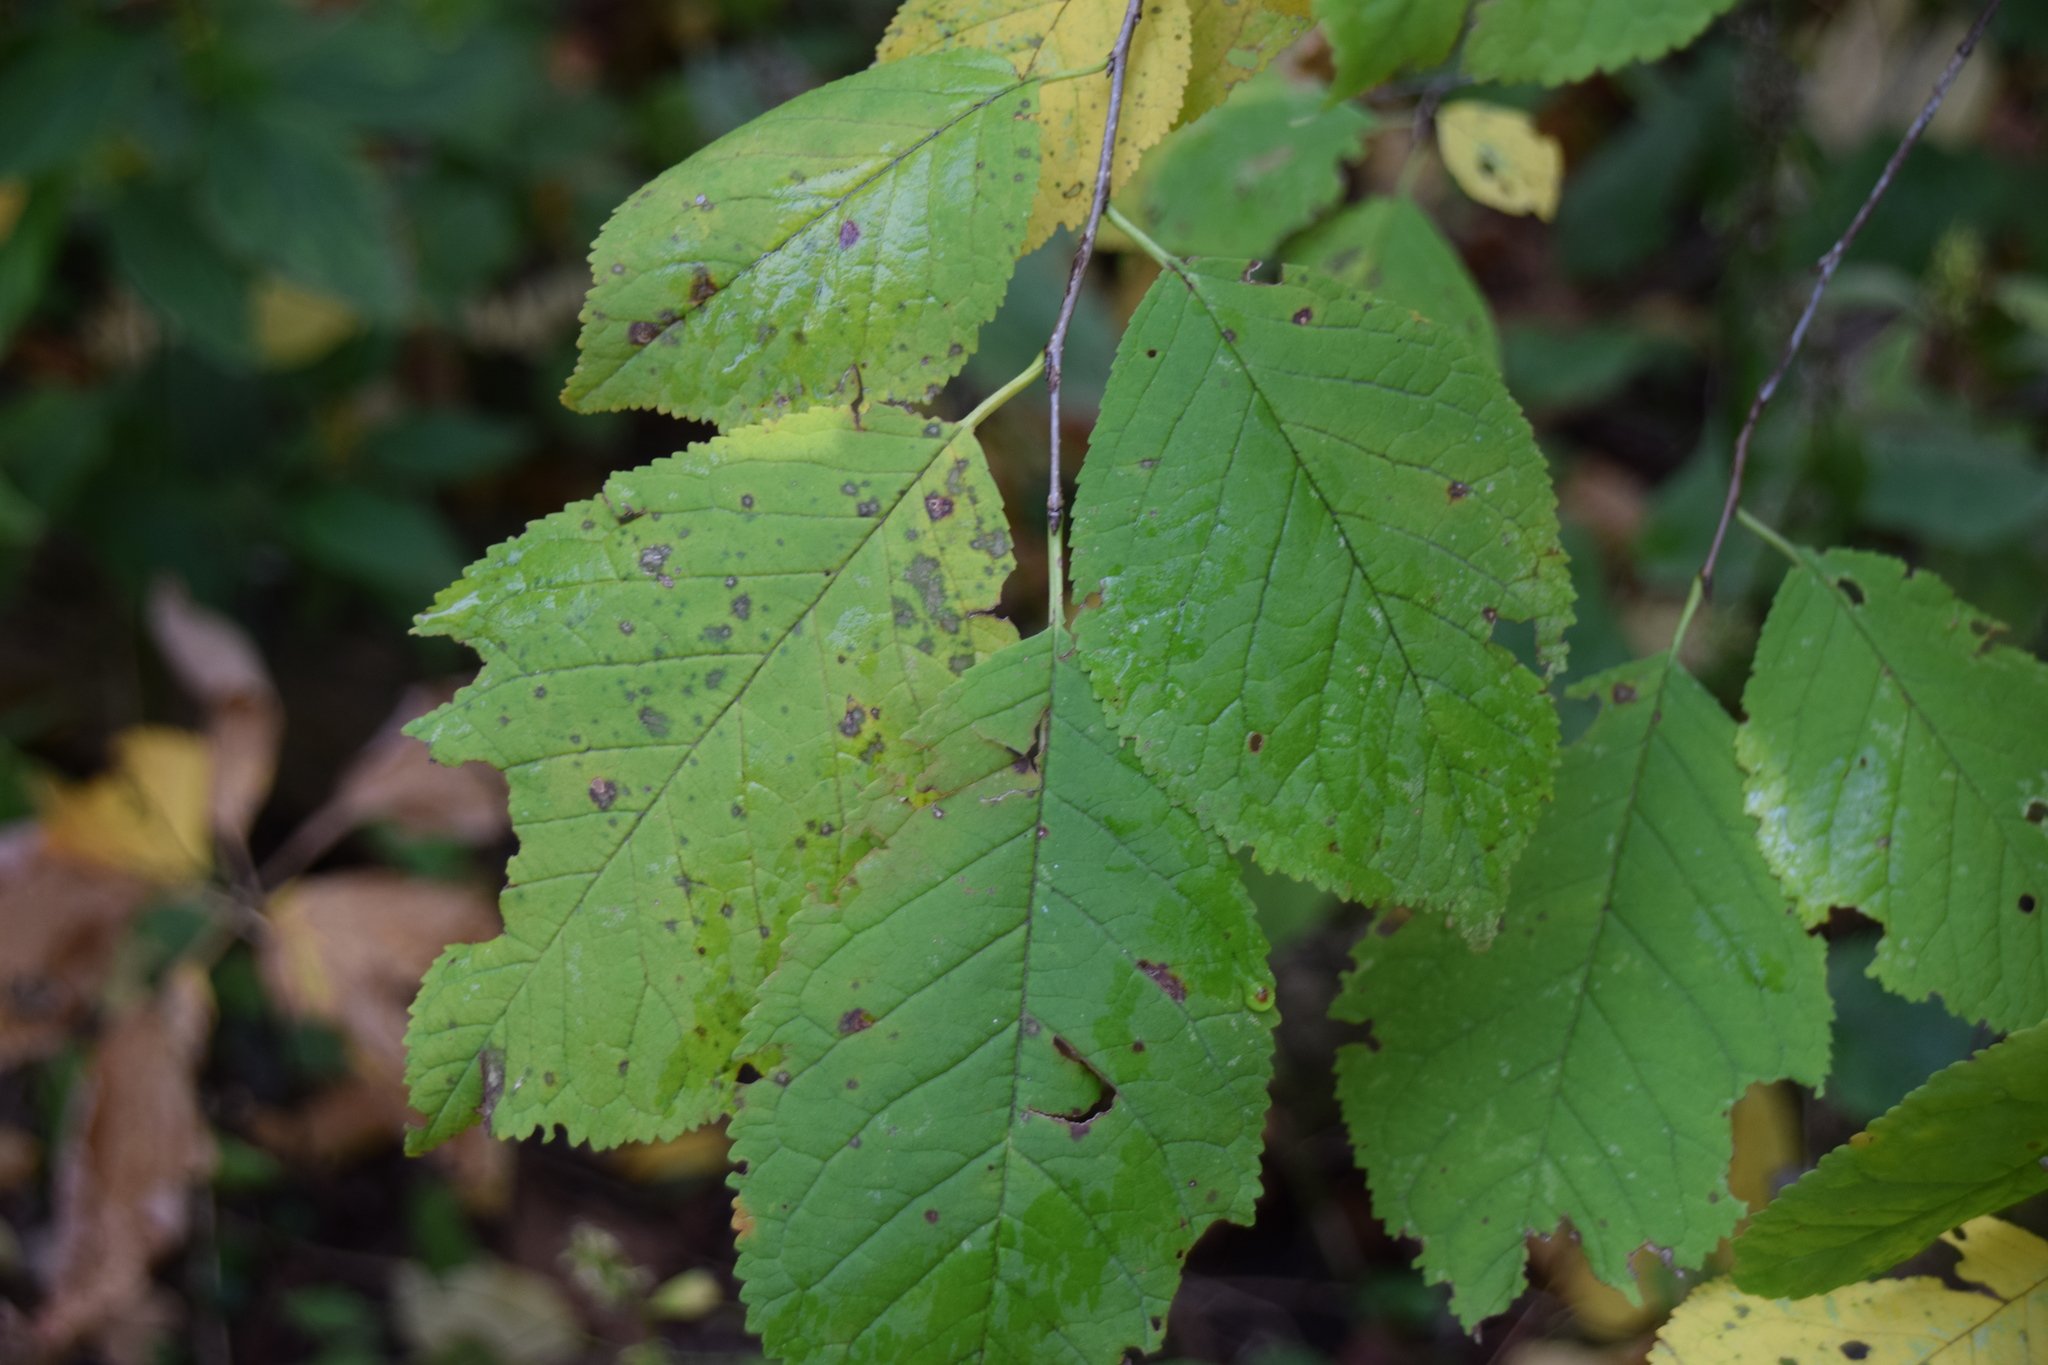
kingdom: Plantae
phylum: Tracheophyta
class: Magnoliopsida
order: Rosales
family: Rosaceae
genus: Prunus
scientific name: Prunus nigra
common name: Black plum
